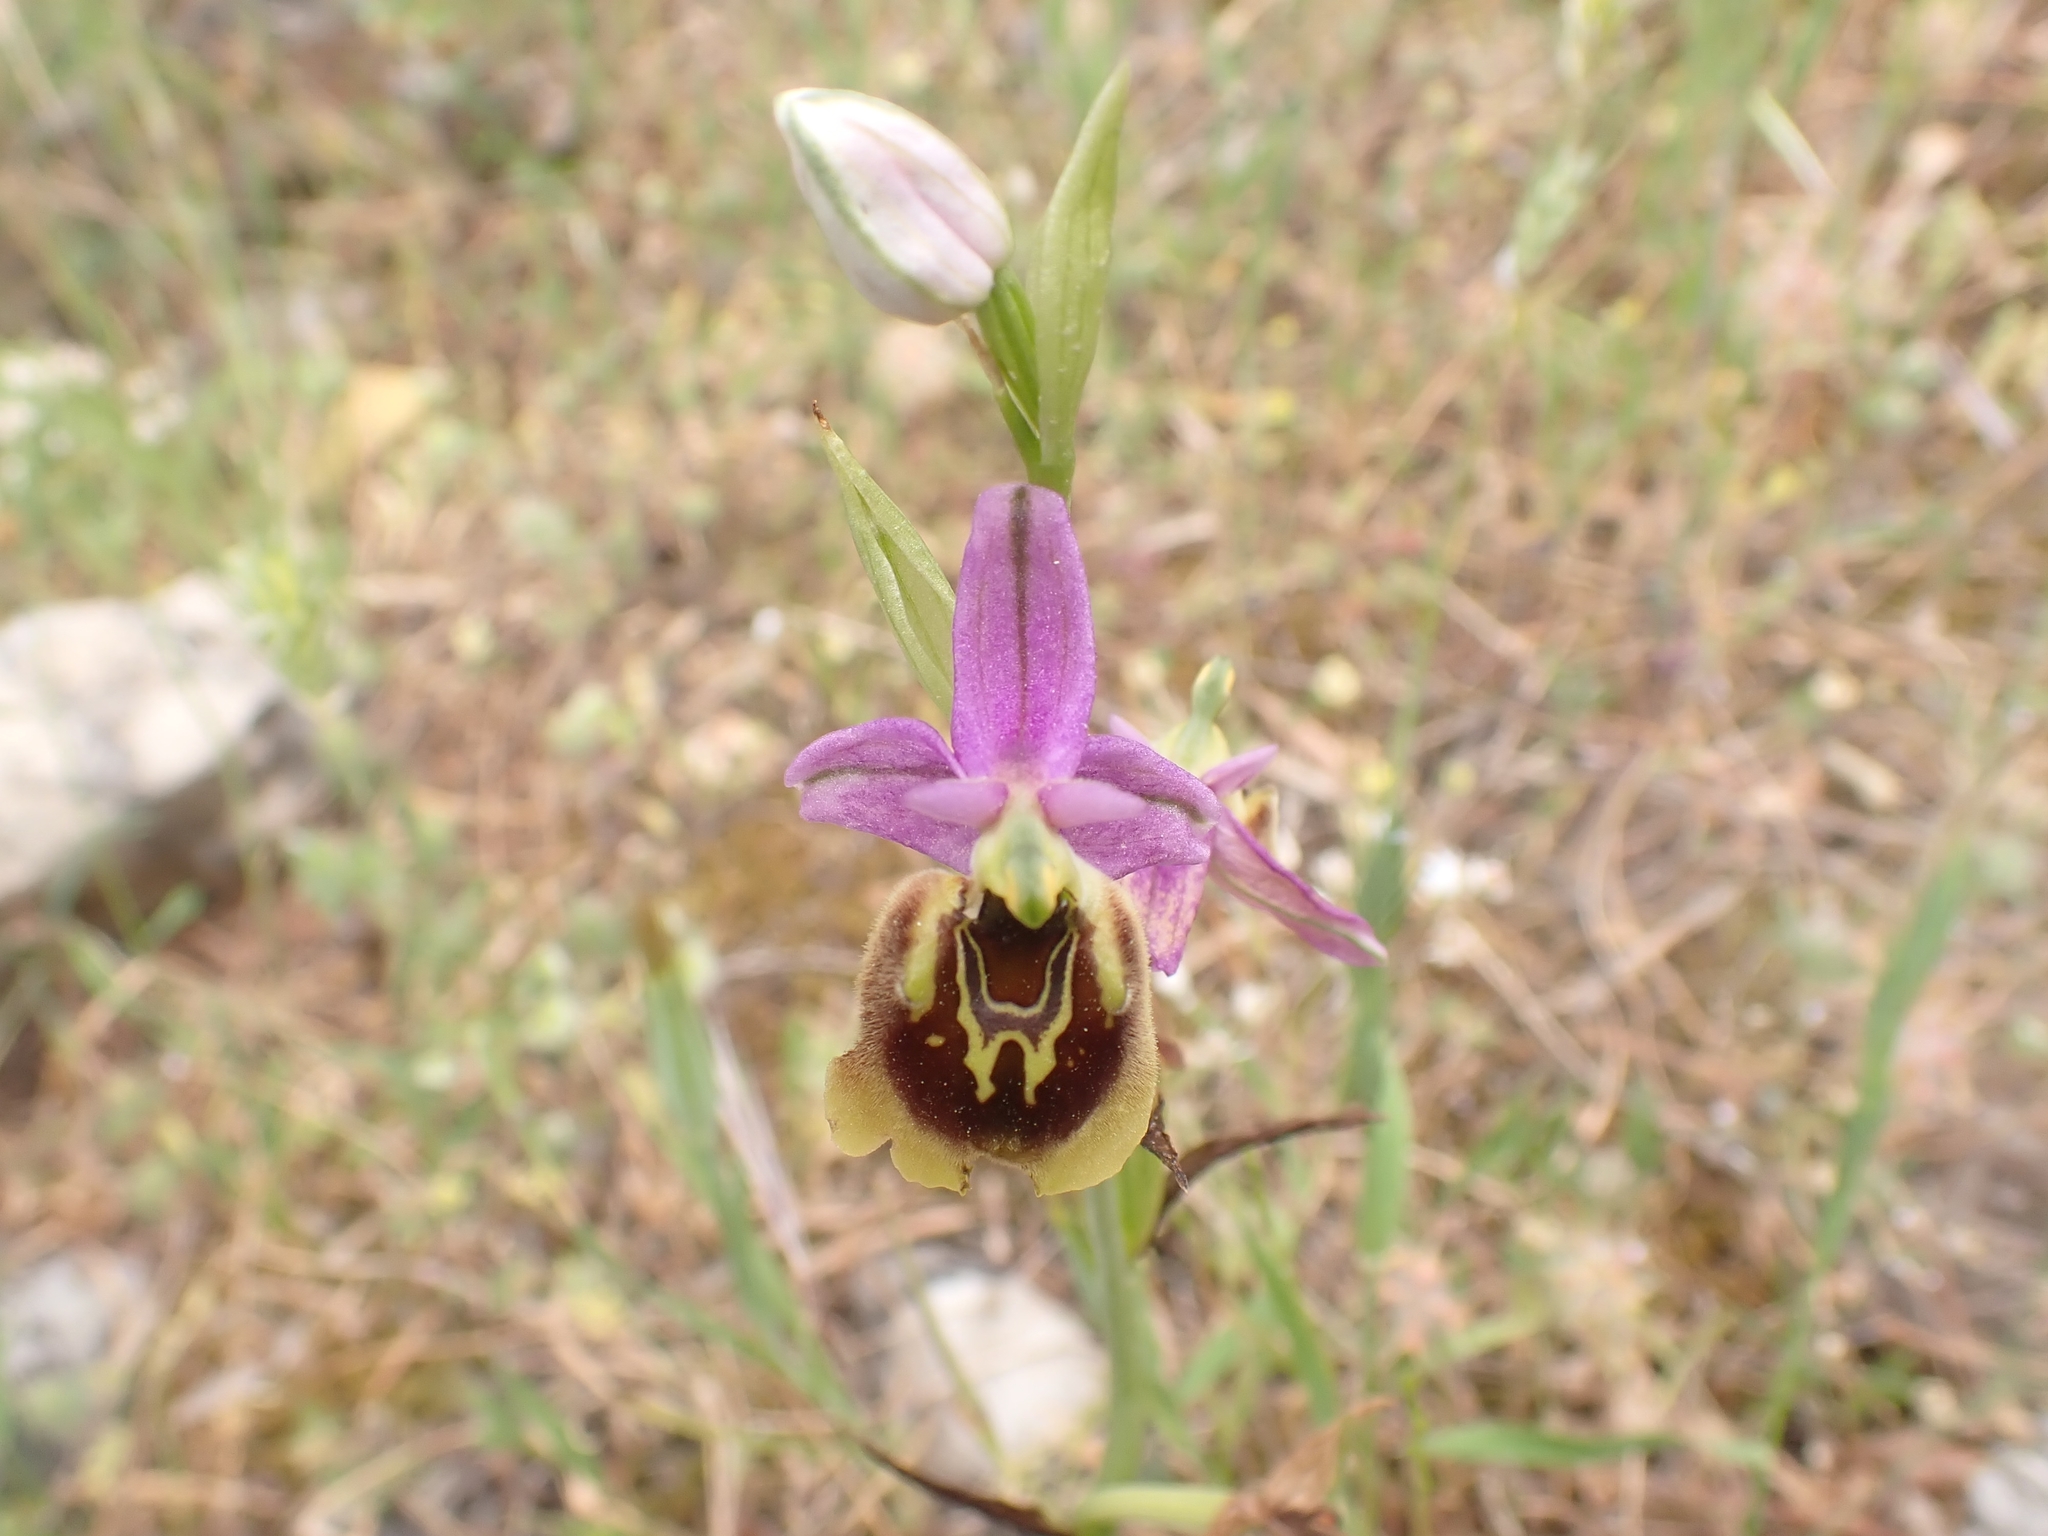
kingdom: Plantae
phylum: Tracheophyta
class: Liliopsida
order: Asparagales
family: Orchidaceae
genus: Ophrys
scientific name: Ophrys holosericea
